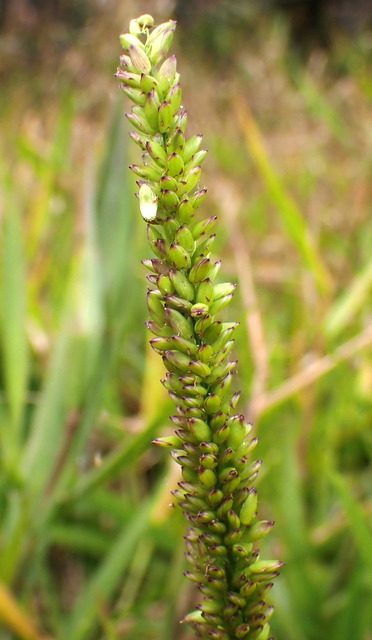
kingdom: Plantae
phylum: Tracheophyta
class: Liliopsida
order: Poales
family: Poaceae
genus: Sacciolepis
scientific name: Sacciolepis striata
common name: American cupscale
